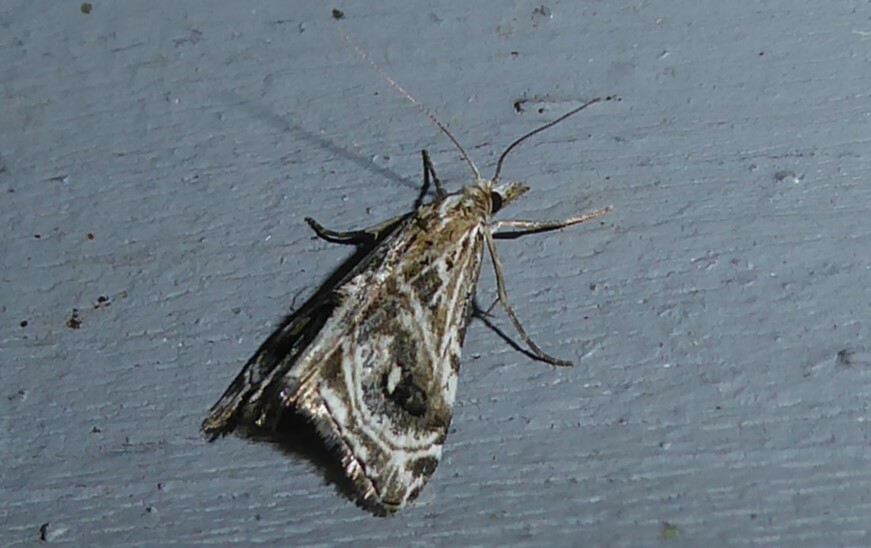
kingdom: Animalia
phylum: Arthropoda
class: Insecta
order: Lepidoptera
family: Crambidae
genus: Gadira
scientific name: Gadira acerella
